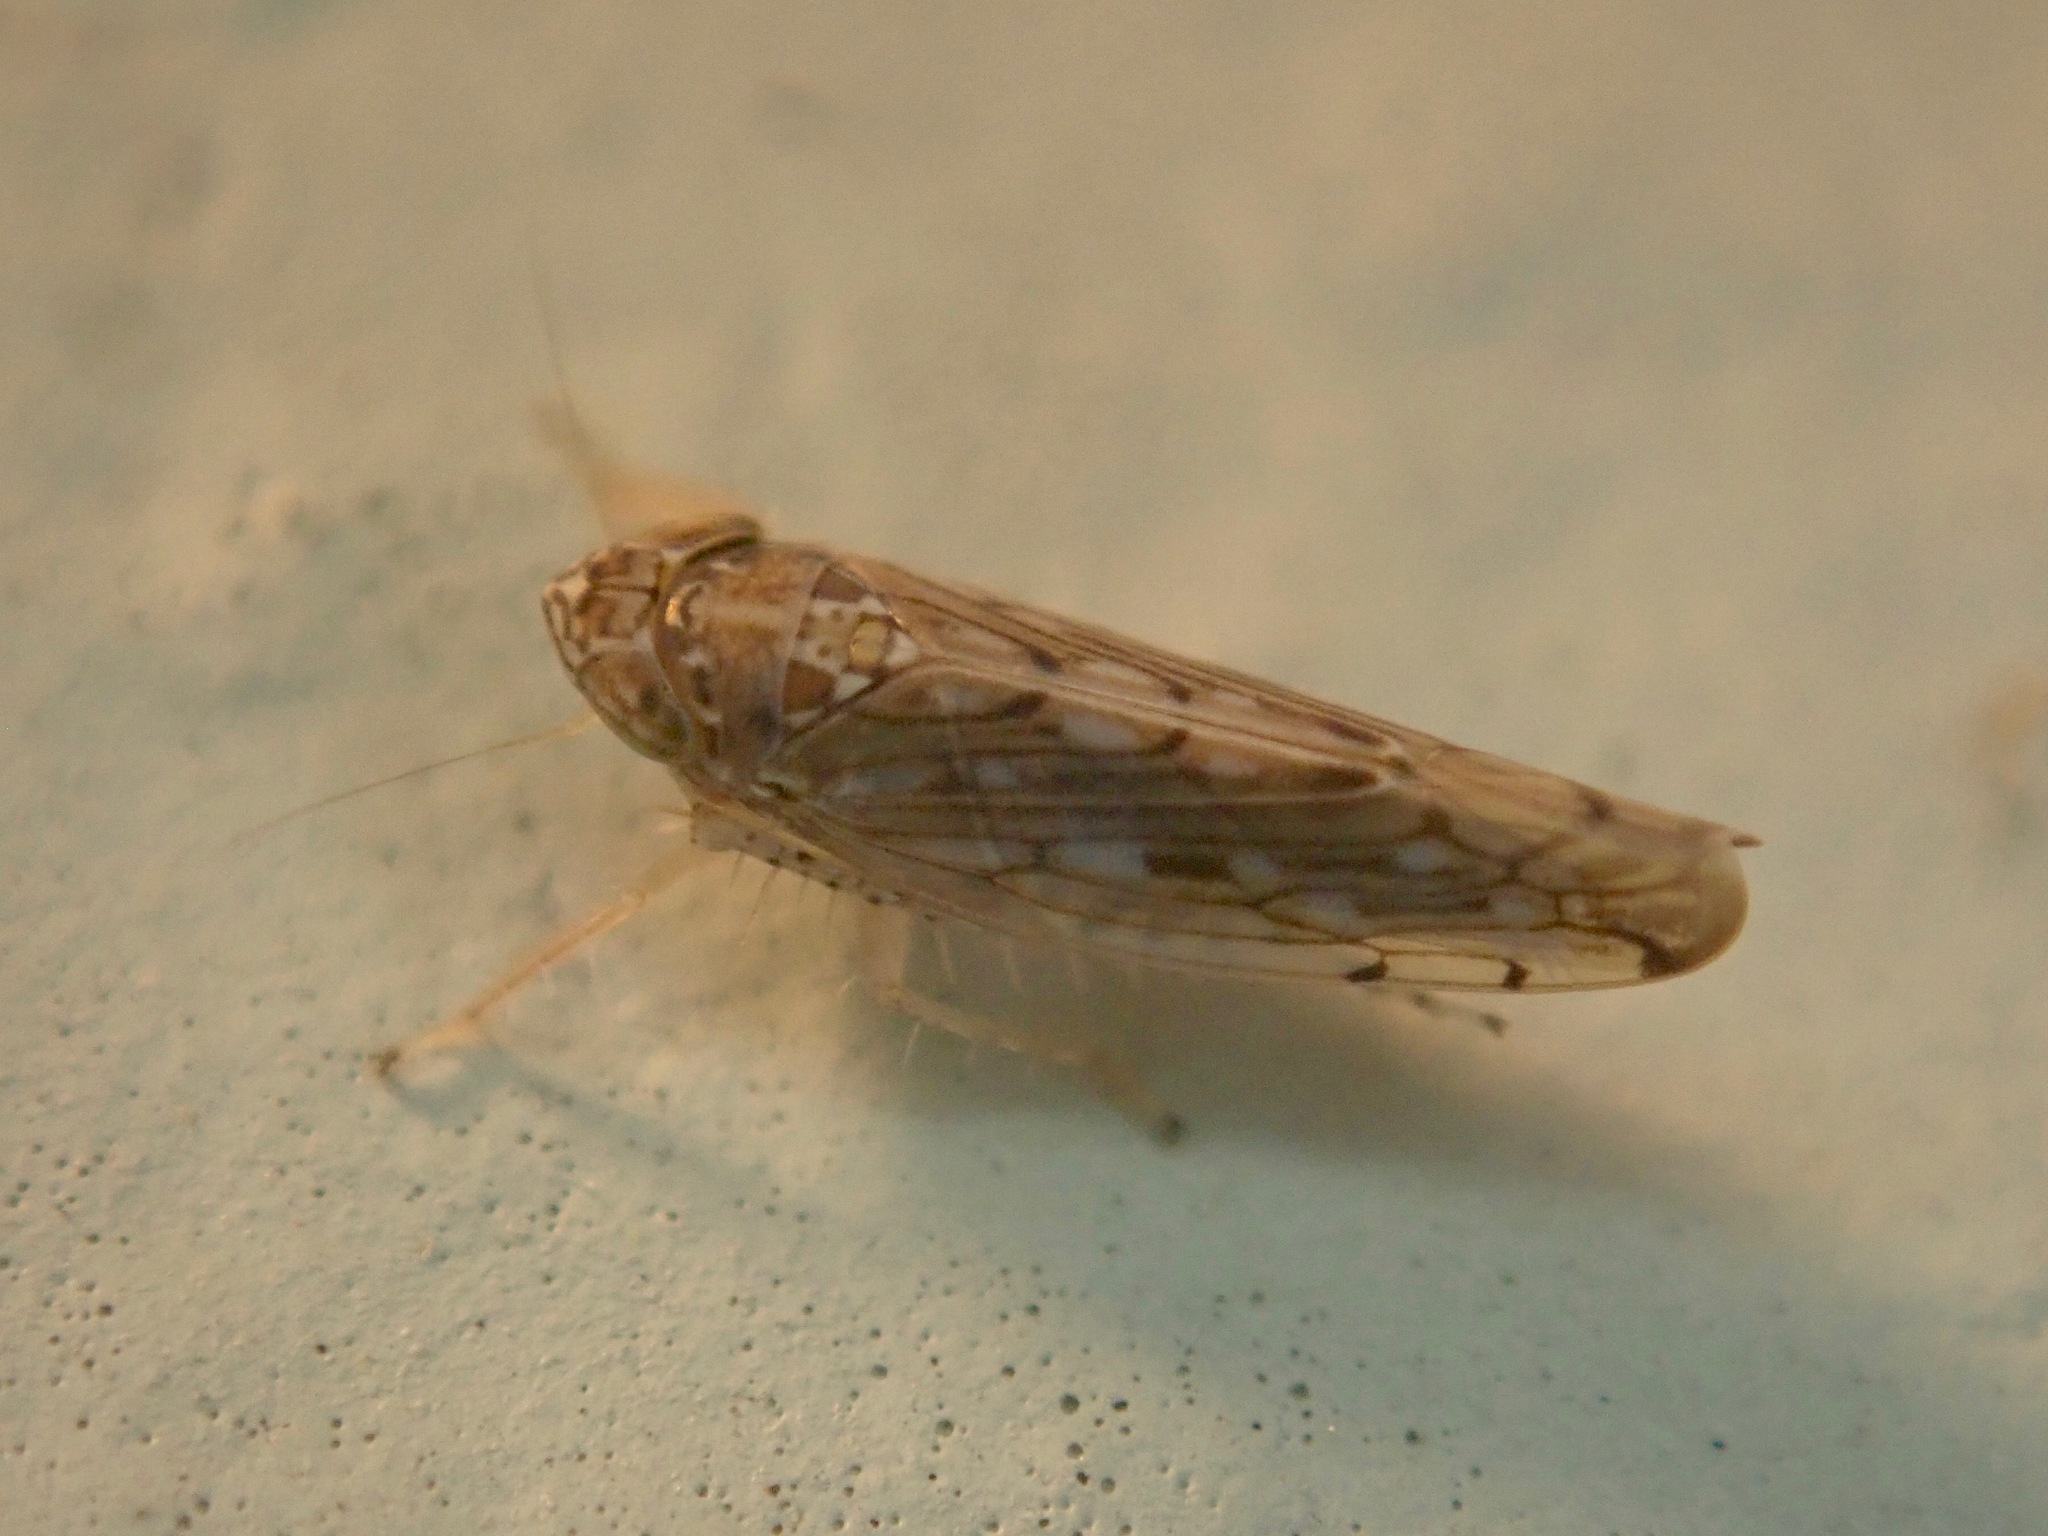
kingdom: Animalia
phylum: Arthropoda
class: Insecta
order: Hemiptera
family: Cicadellidae
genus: Osbornellus
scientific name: Osbornellus clarus
